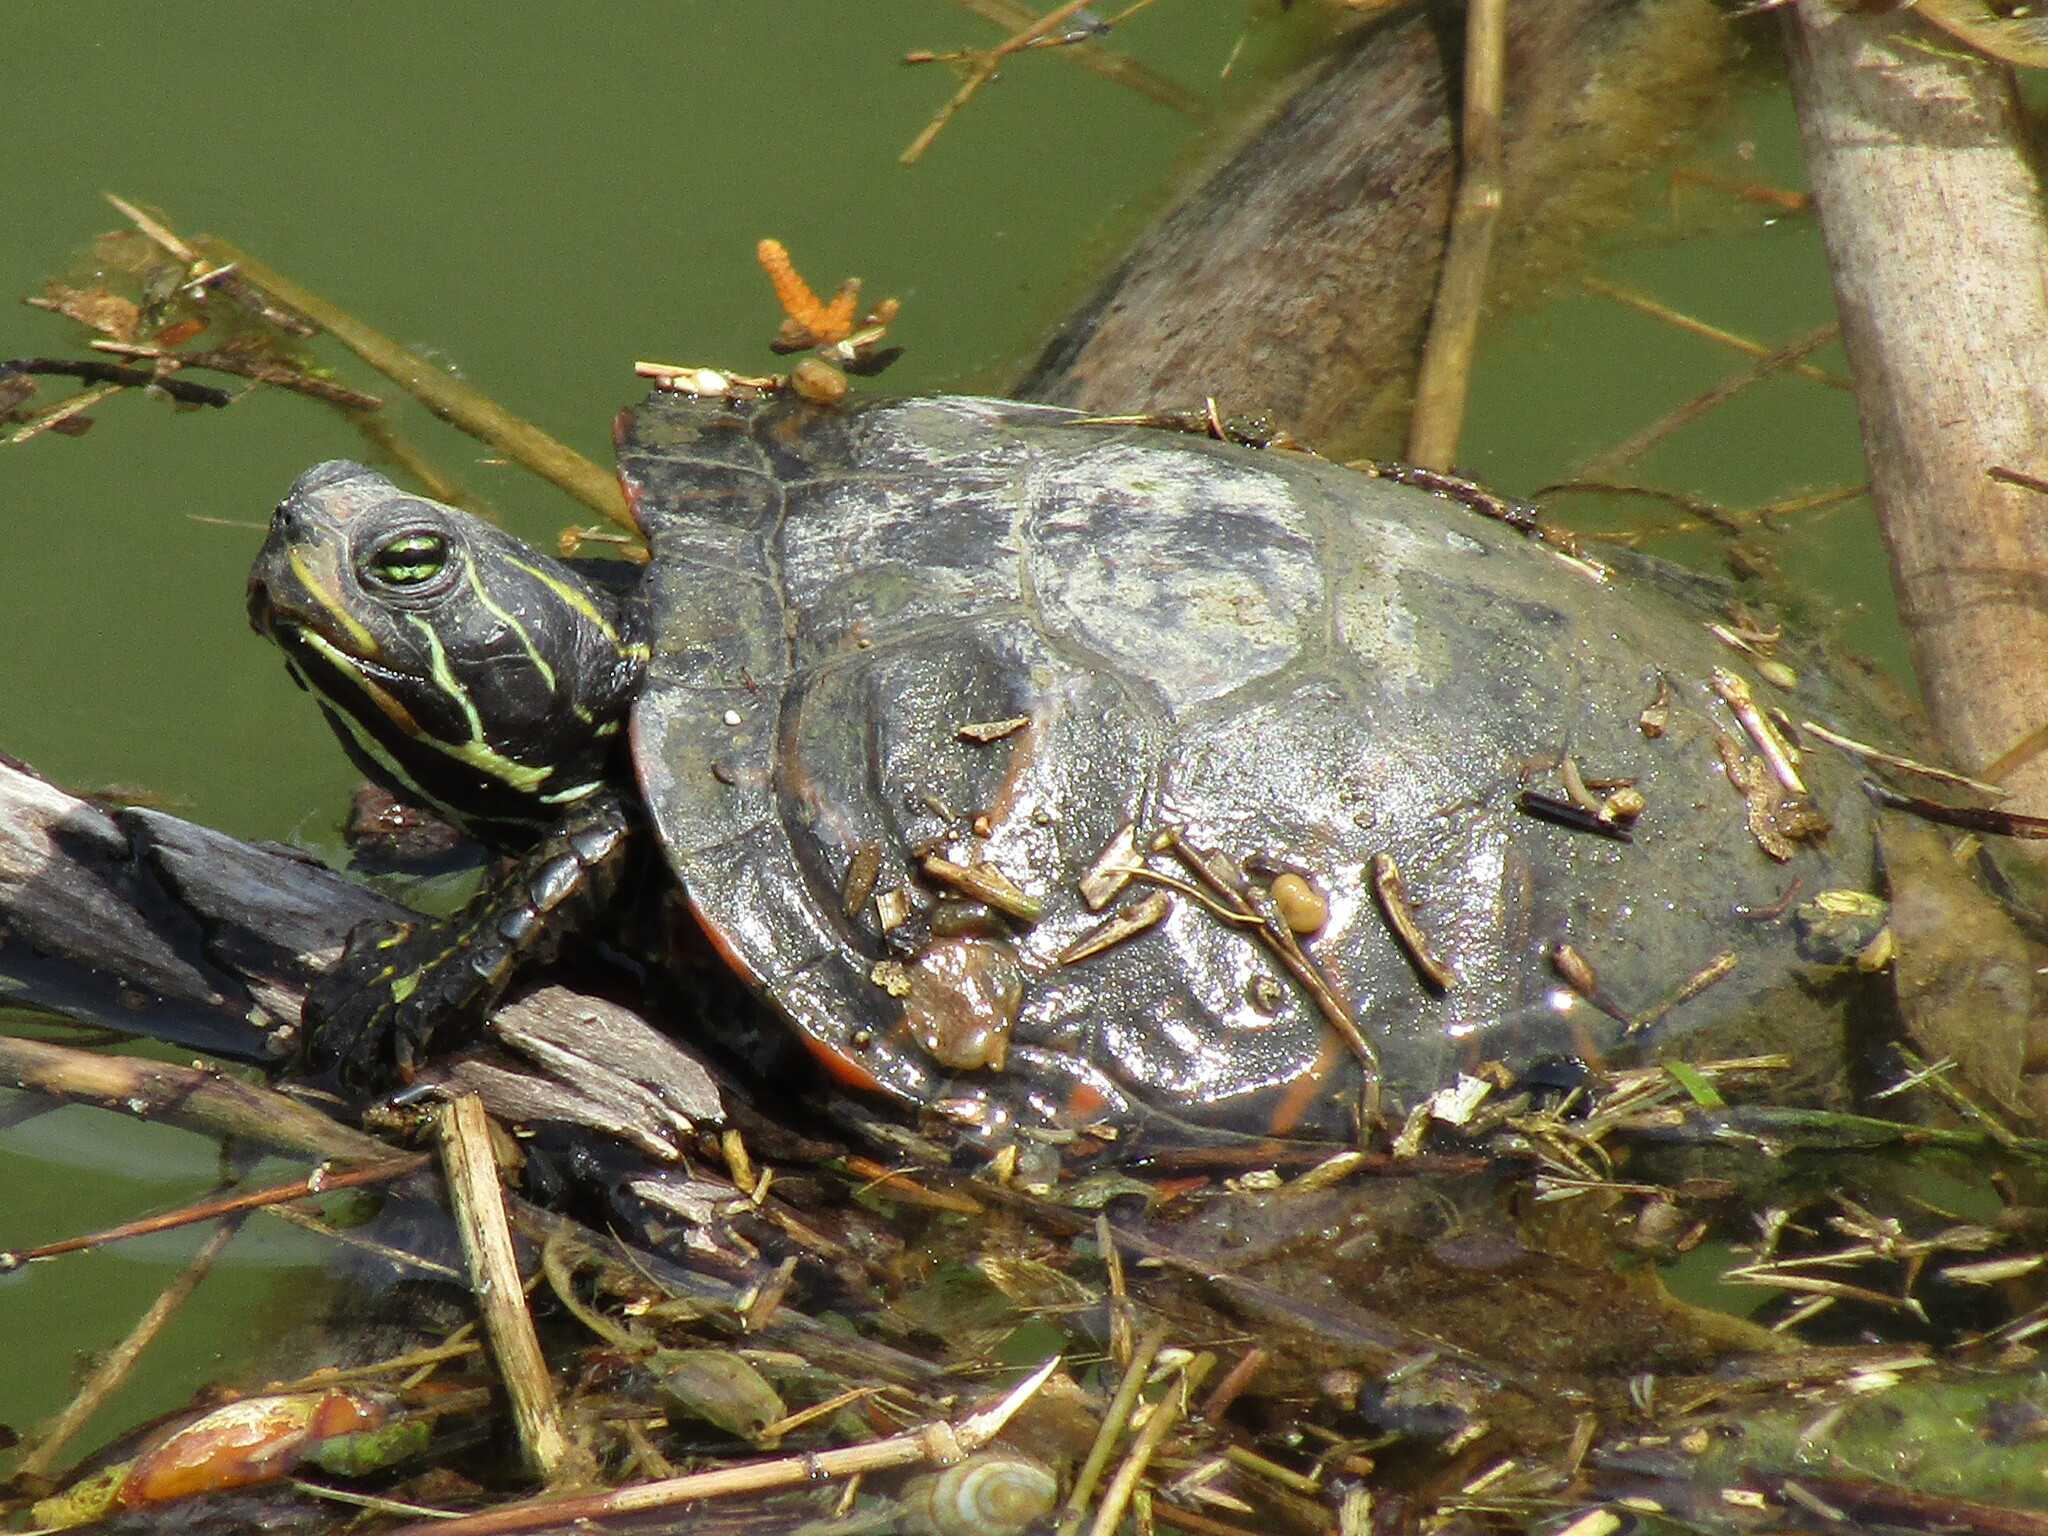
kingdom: Animalia
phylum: Chordata
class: Testudines
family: Emydidae
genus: Pseudemys
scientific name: Pseudemys rubriventris
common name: American red-bellied turtle
